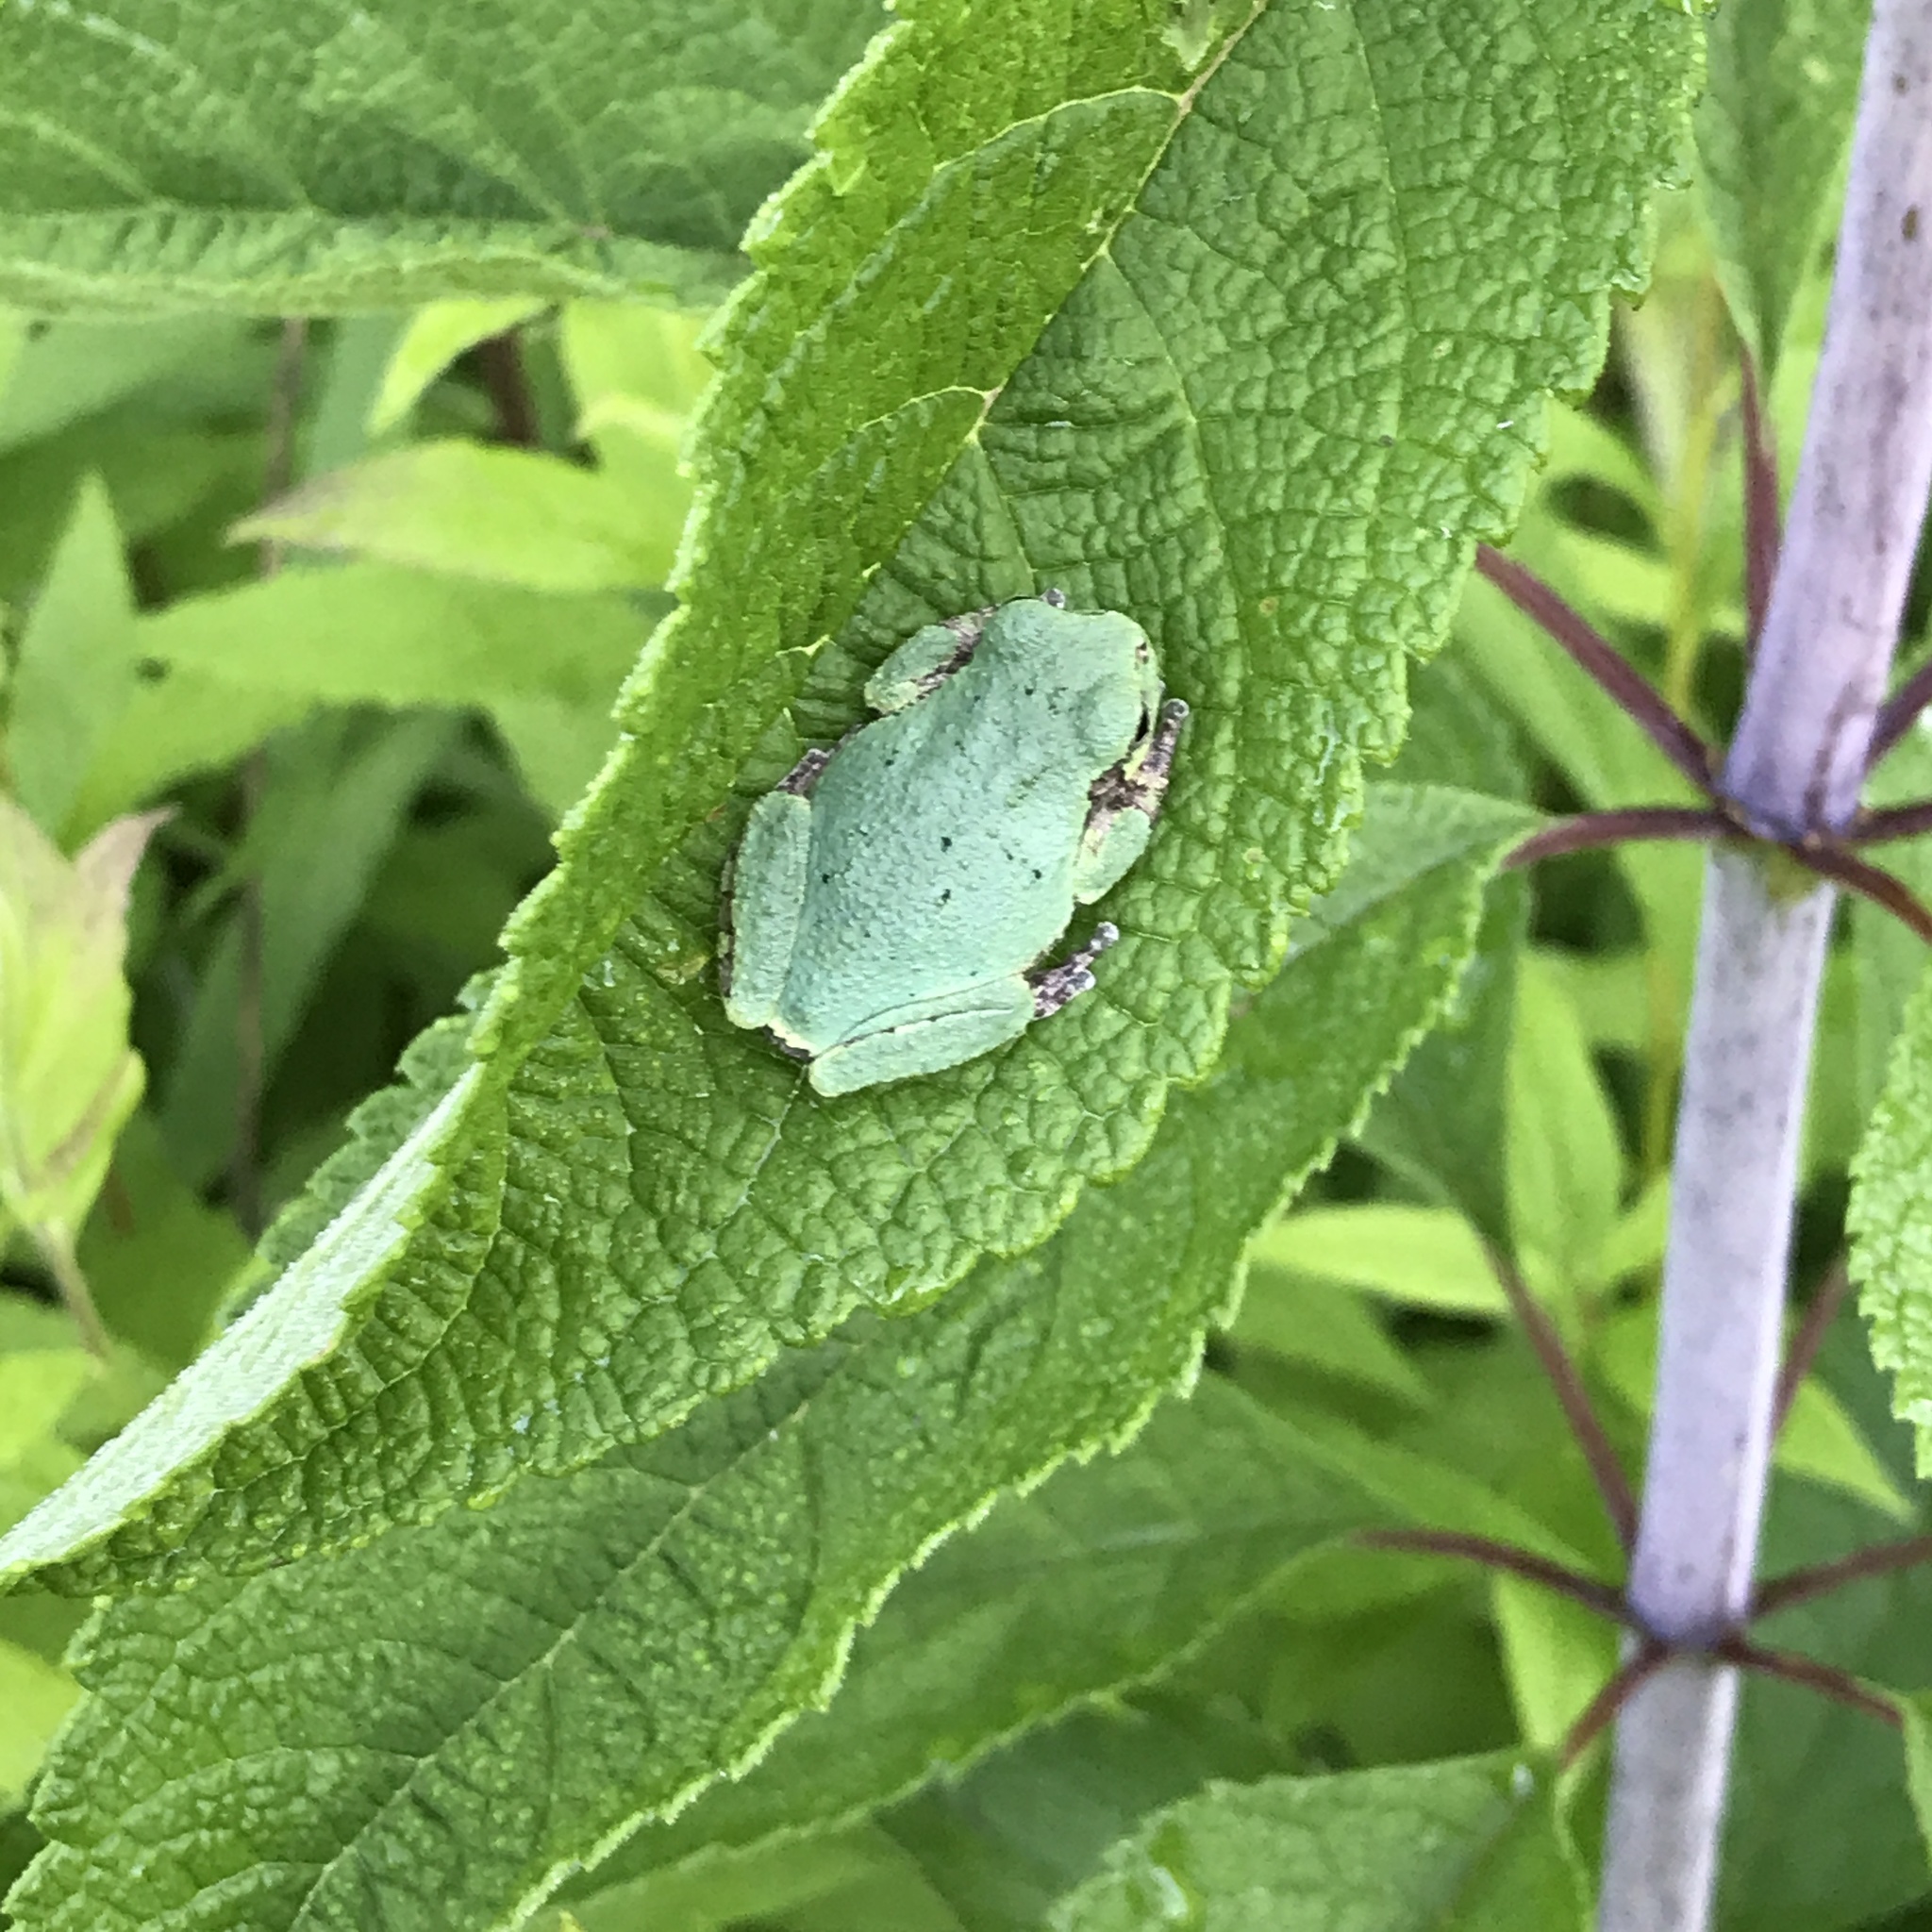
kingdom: Animalia
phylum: Chordata
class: Amphibia
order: Anura
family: Hylidae
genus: Dryophytes
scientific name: Dryophytes versicolor
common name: Gray treefrog
